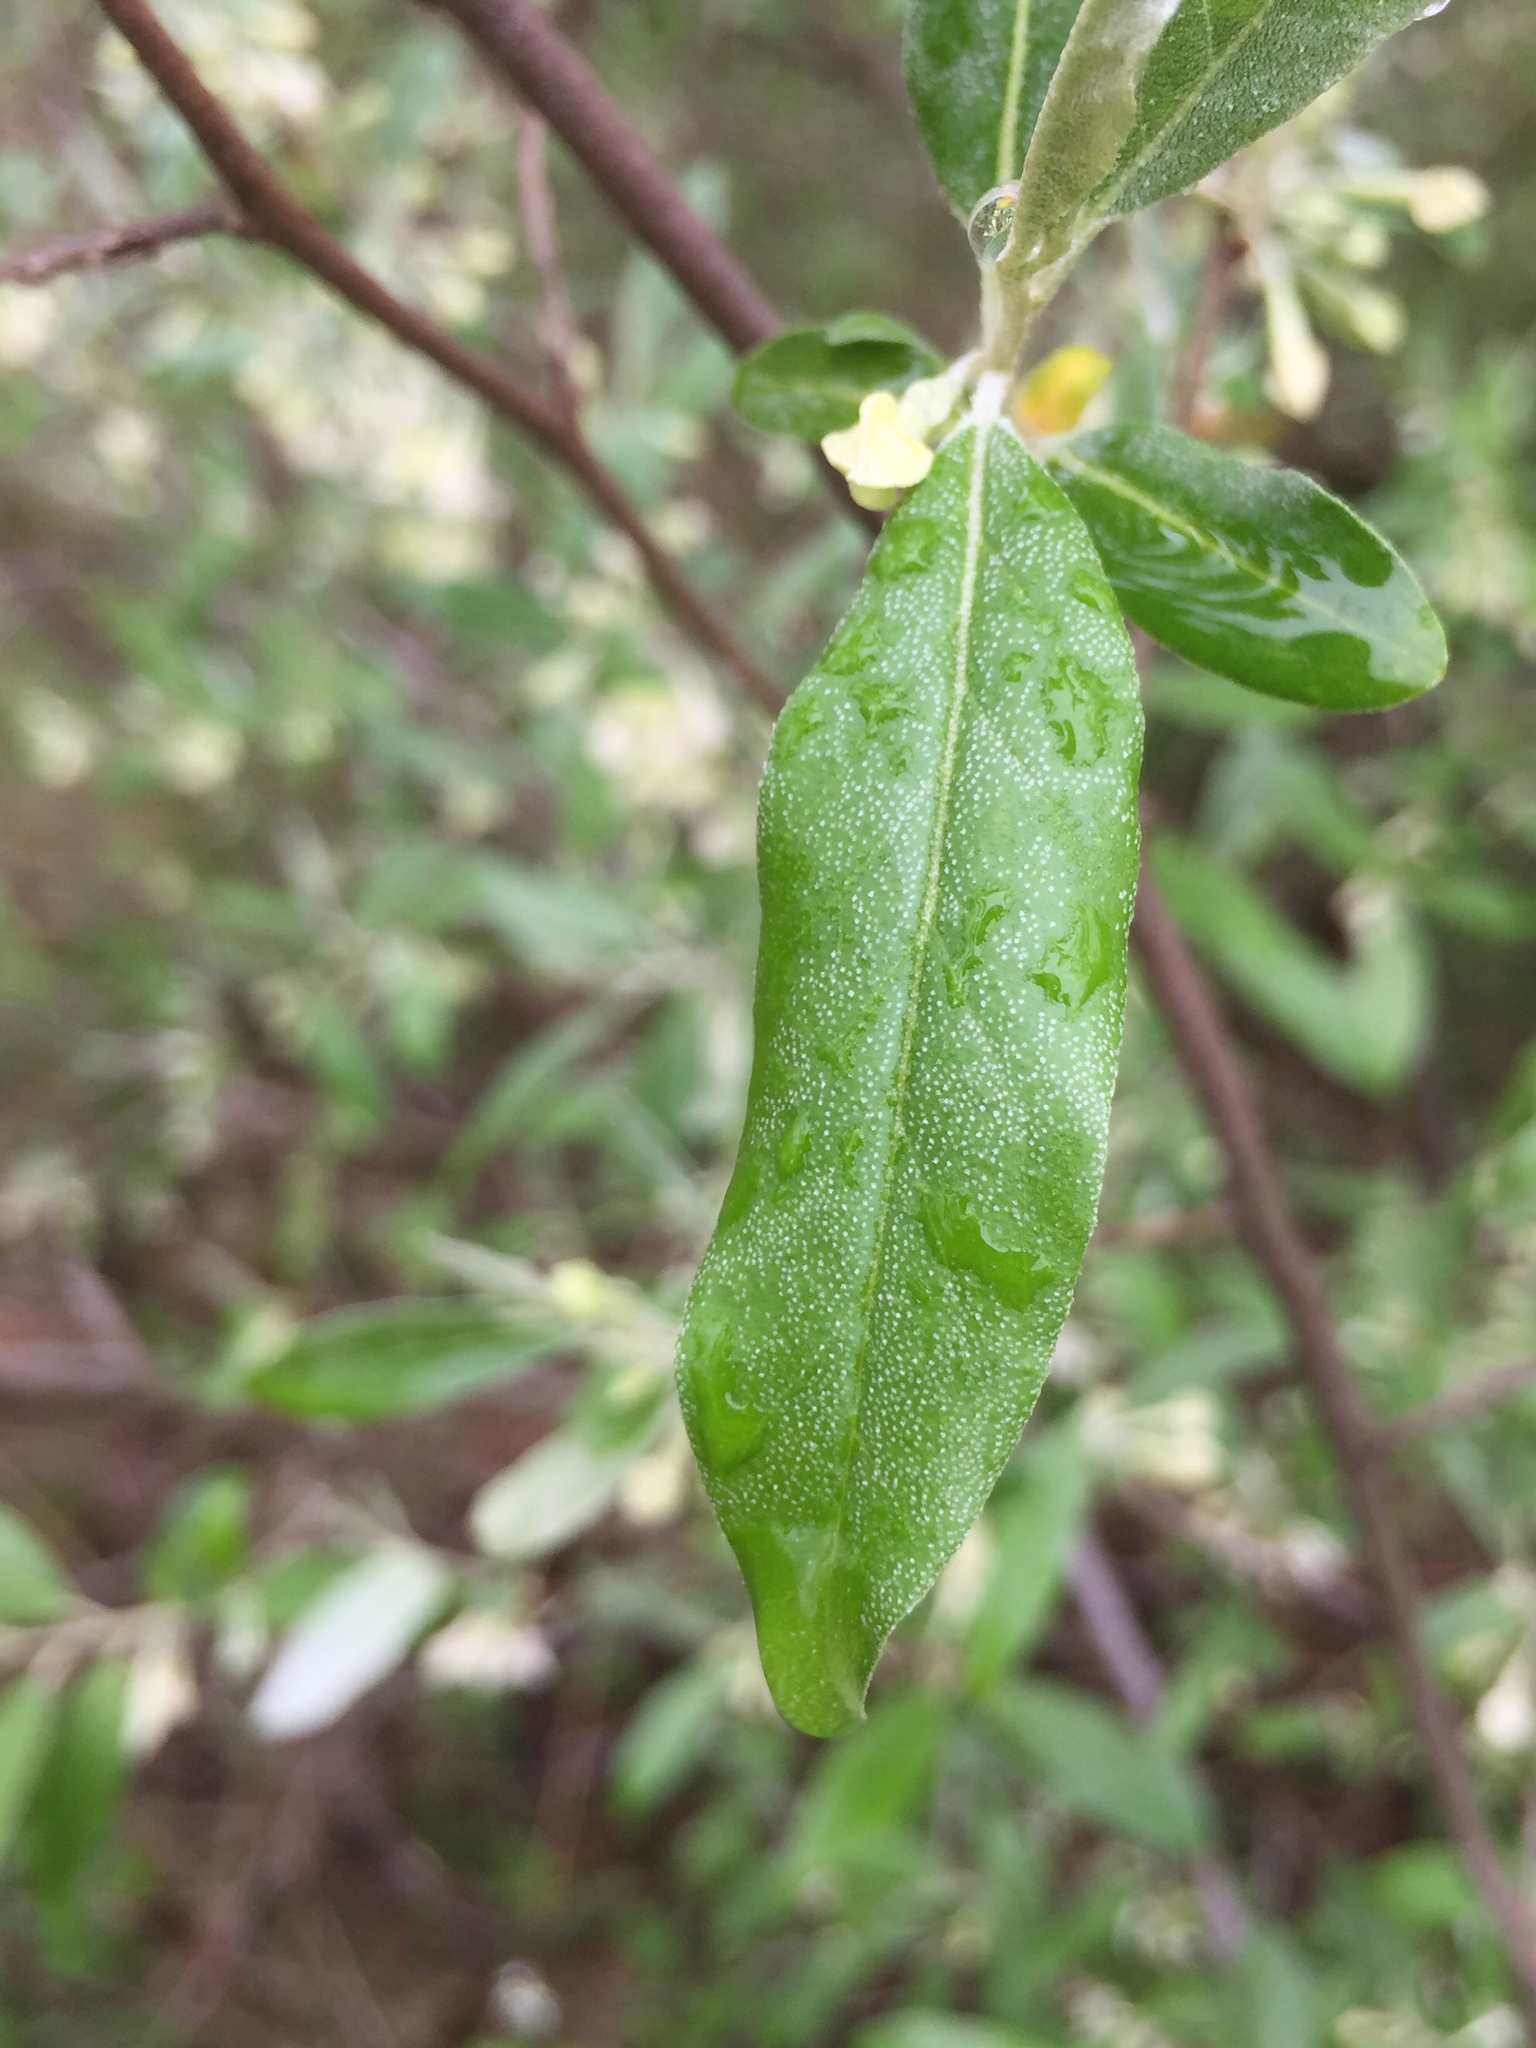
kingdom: Plantae
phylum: Tracheophyta
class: Magnoliopsida
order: Rosales
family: Elaeagnaceae
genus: Elaeagnus
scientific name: Elaeagnus umbellata
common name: Autumn olive
